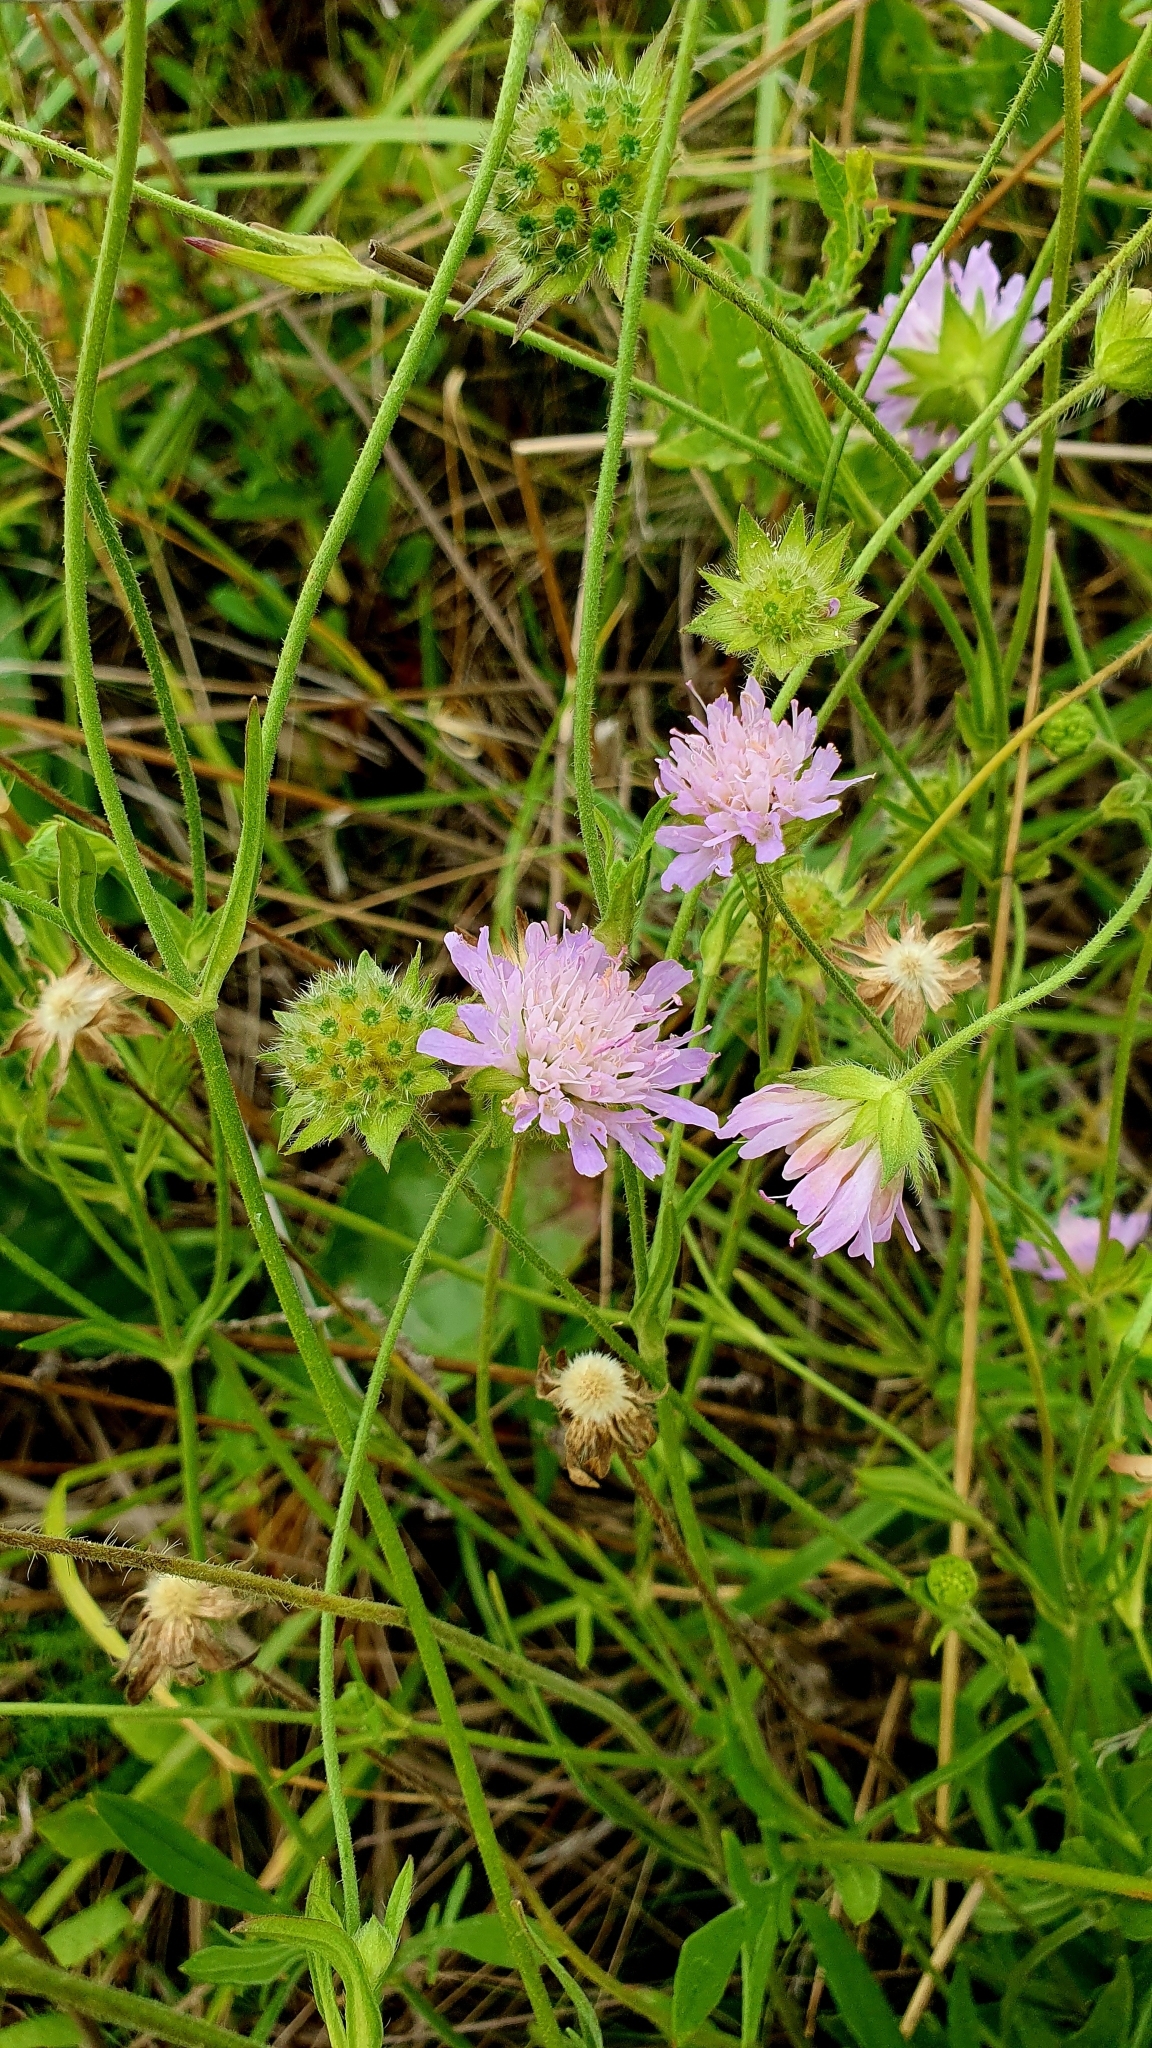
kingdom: Plantae
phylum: Tracheophyta
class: Magnoliopsida
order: Dipsacales
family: Caprifoliaceae
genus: Knautia
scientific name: Knautia arvensis
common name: Field scabiosa
